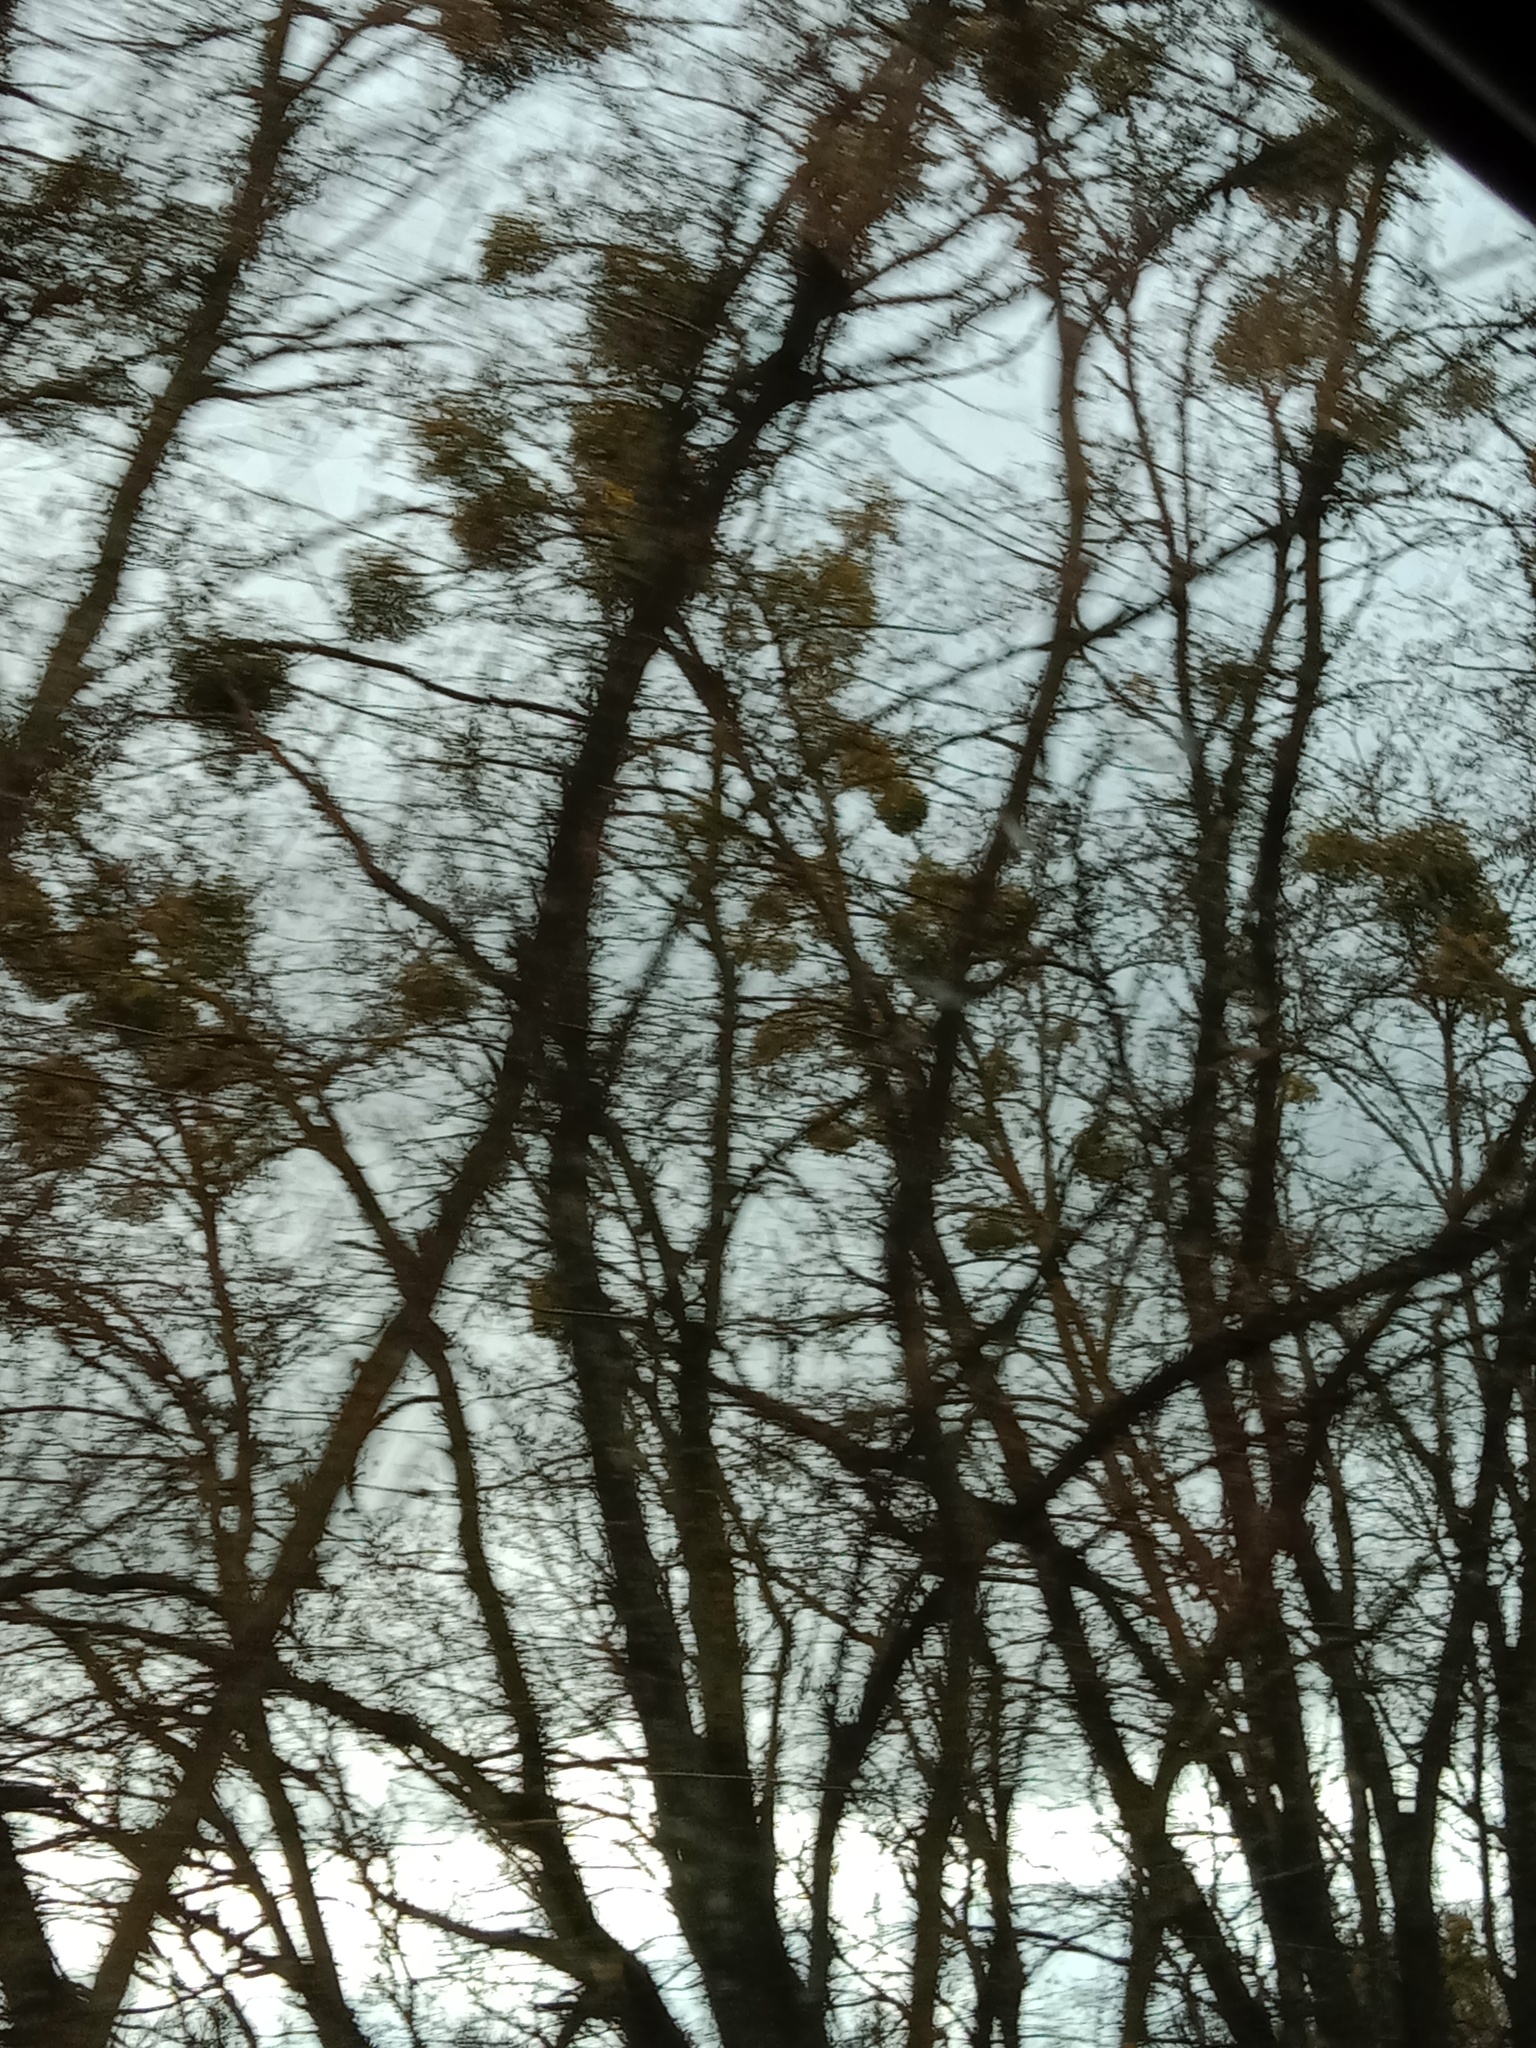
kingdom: Plantae
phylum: Tracheophyta
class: Magnoliopsida
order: Santalales
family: Viscaceae
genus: Viscum
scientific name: Viscum album
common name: Mistletoe
